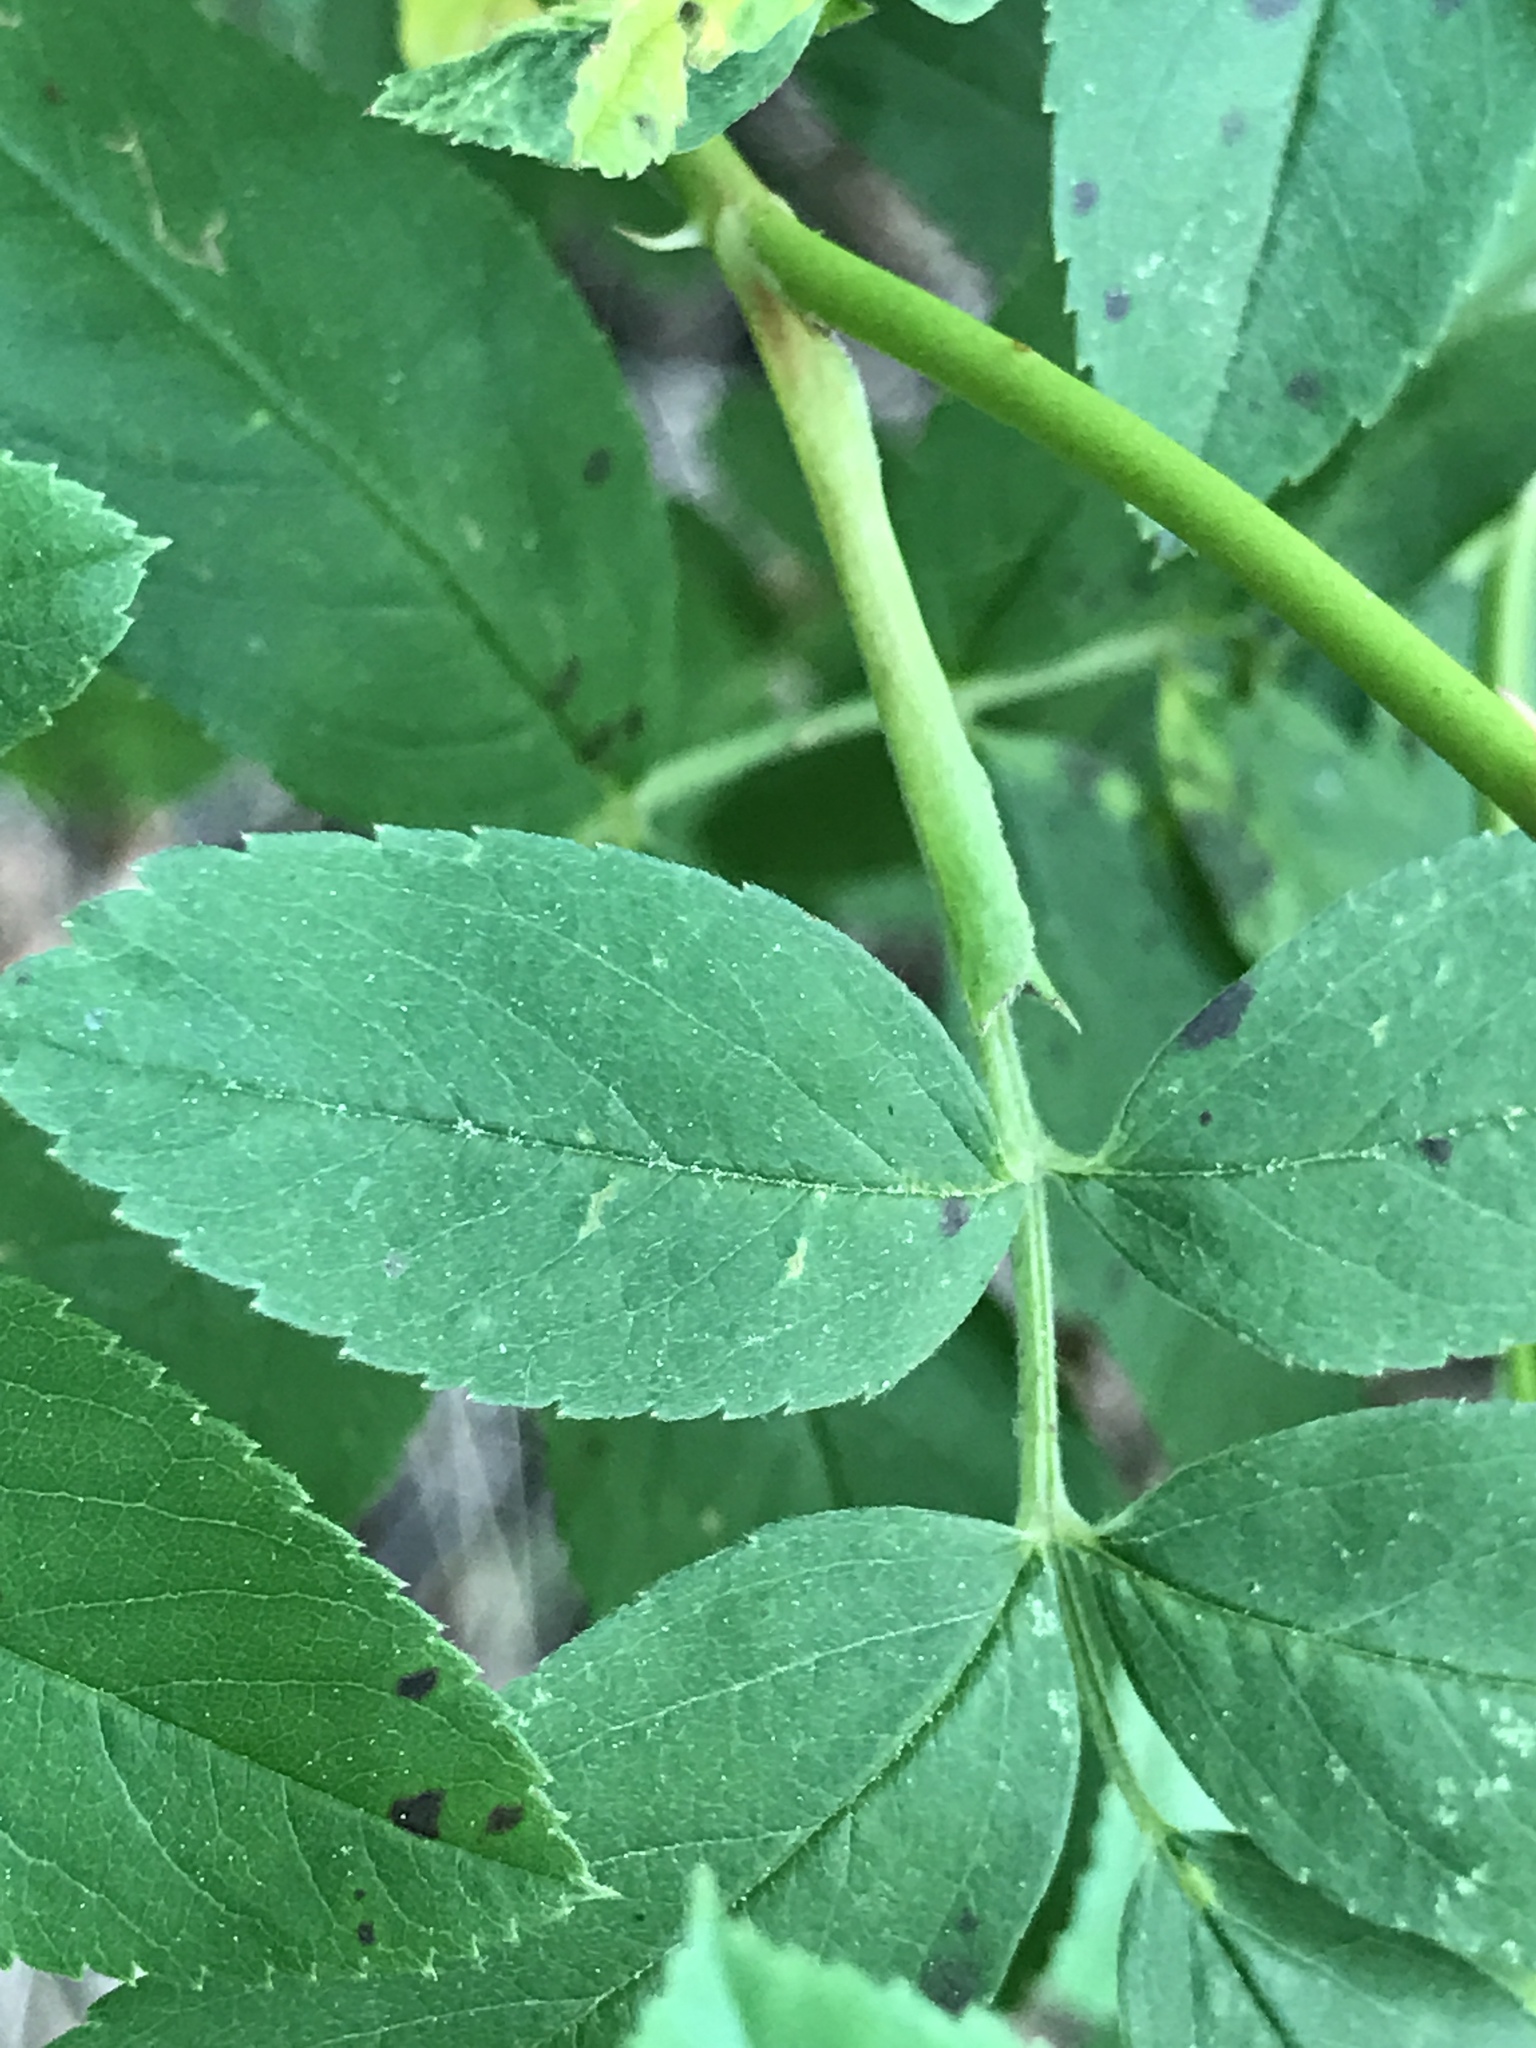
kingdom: Plantae
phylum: Tracheophyta
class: Magnoliopsida
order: Rosales
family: Rosaceae
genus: Rosa
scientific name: Rosa palustris
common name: Swamp rose
